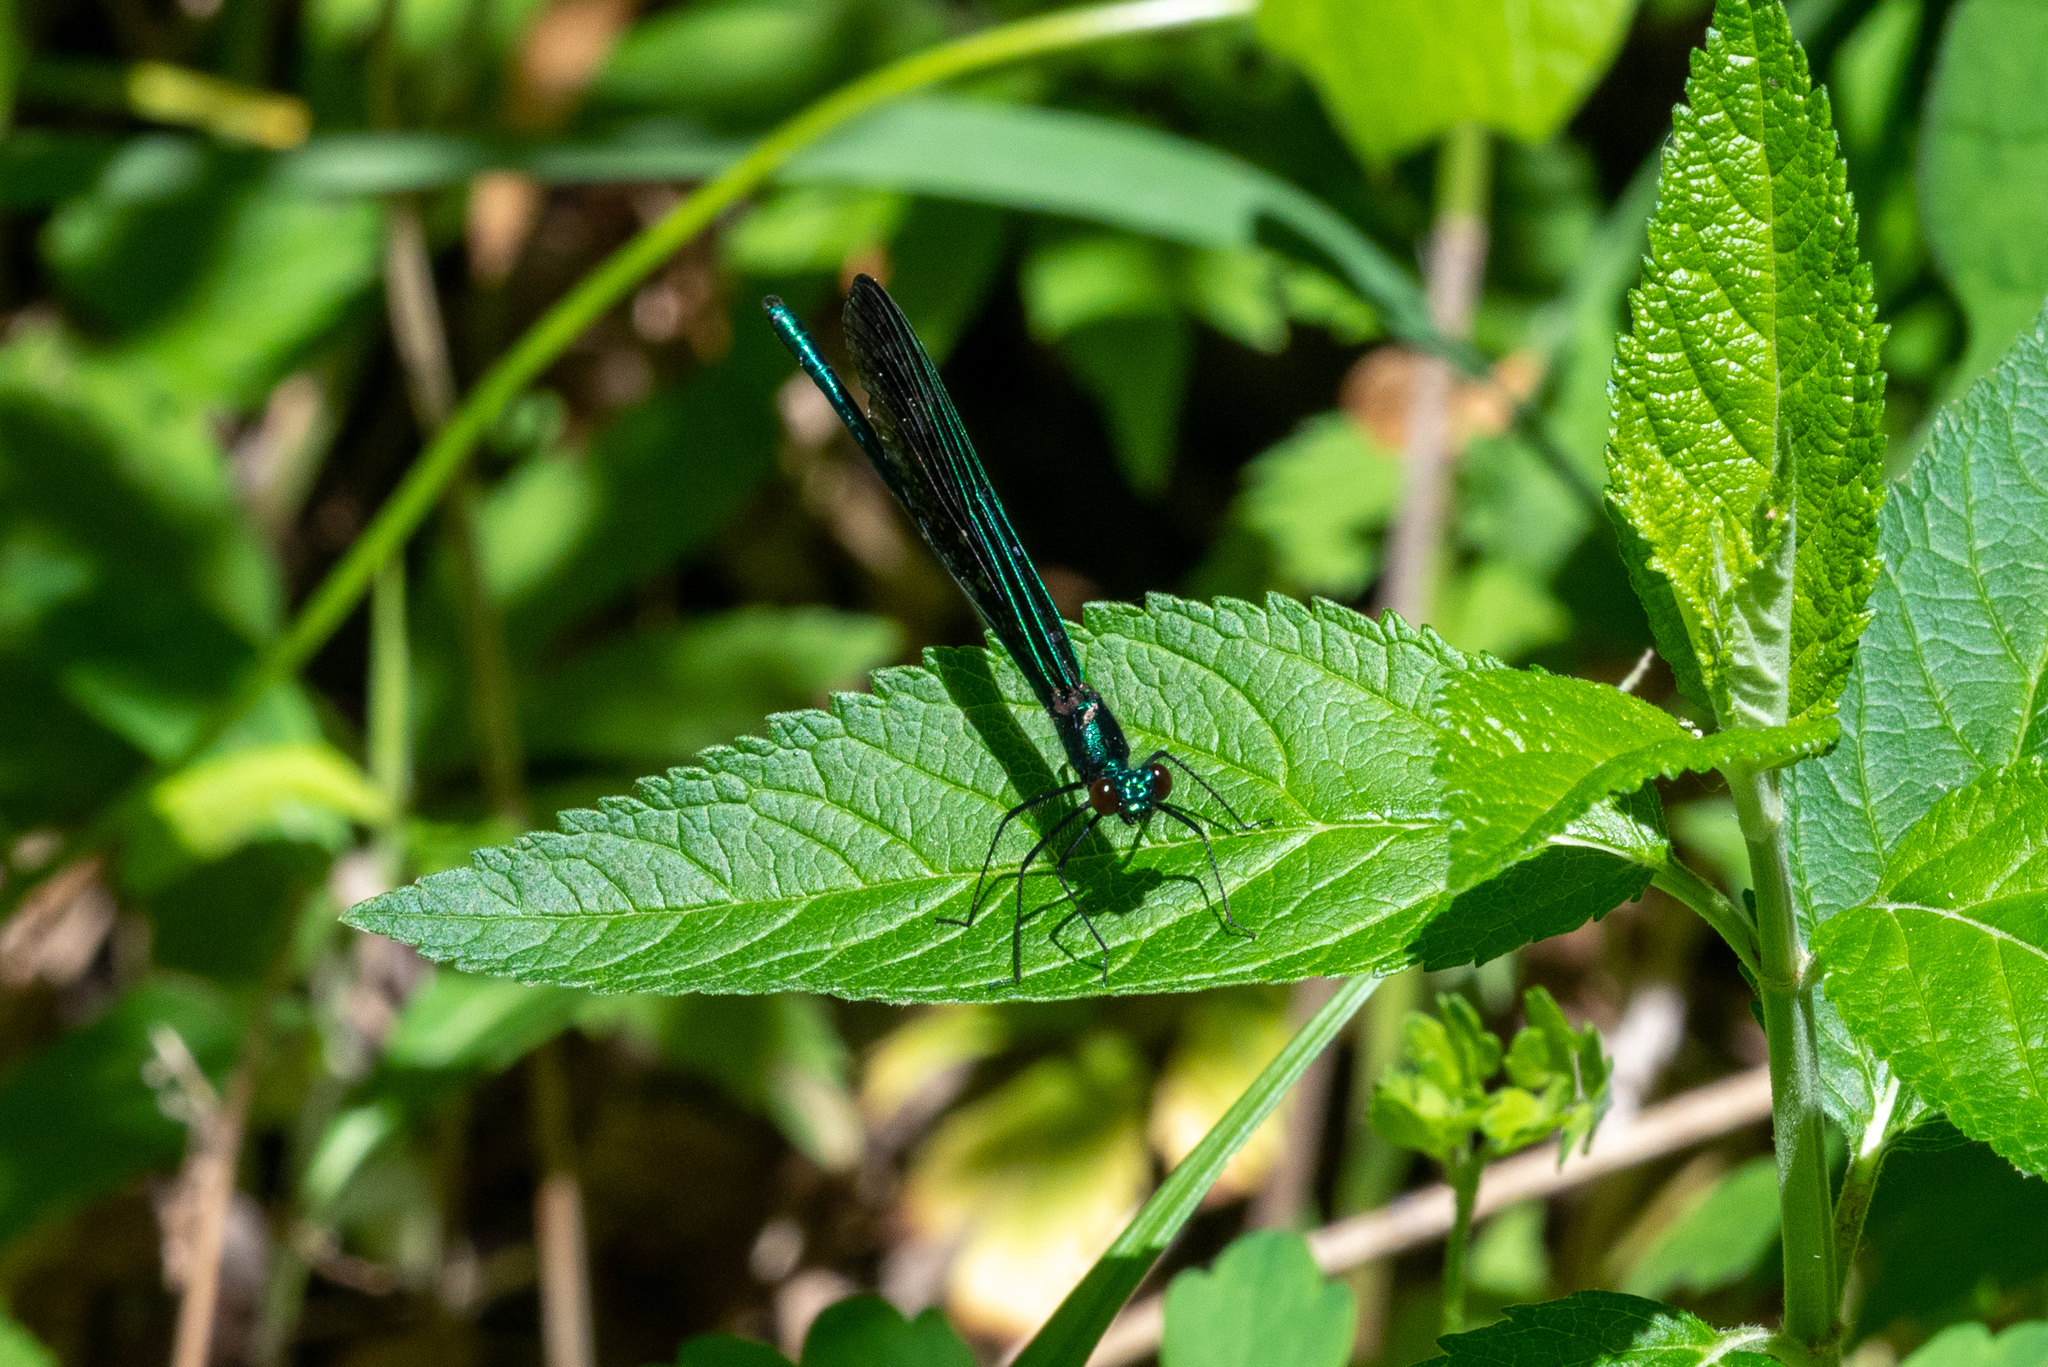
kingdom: Animalia
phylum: Arthropoda
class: Insecta
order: Odonata
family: Calopterygidae
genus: Calopteryx
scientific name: Calopteryx maculata
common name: Ebony jewelwing
